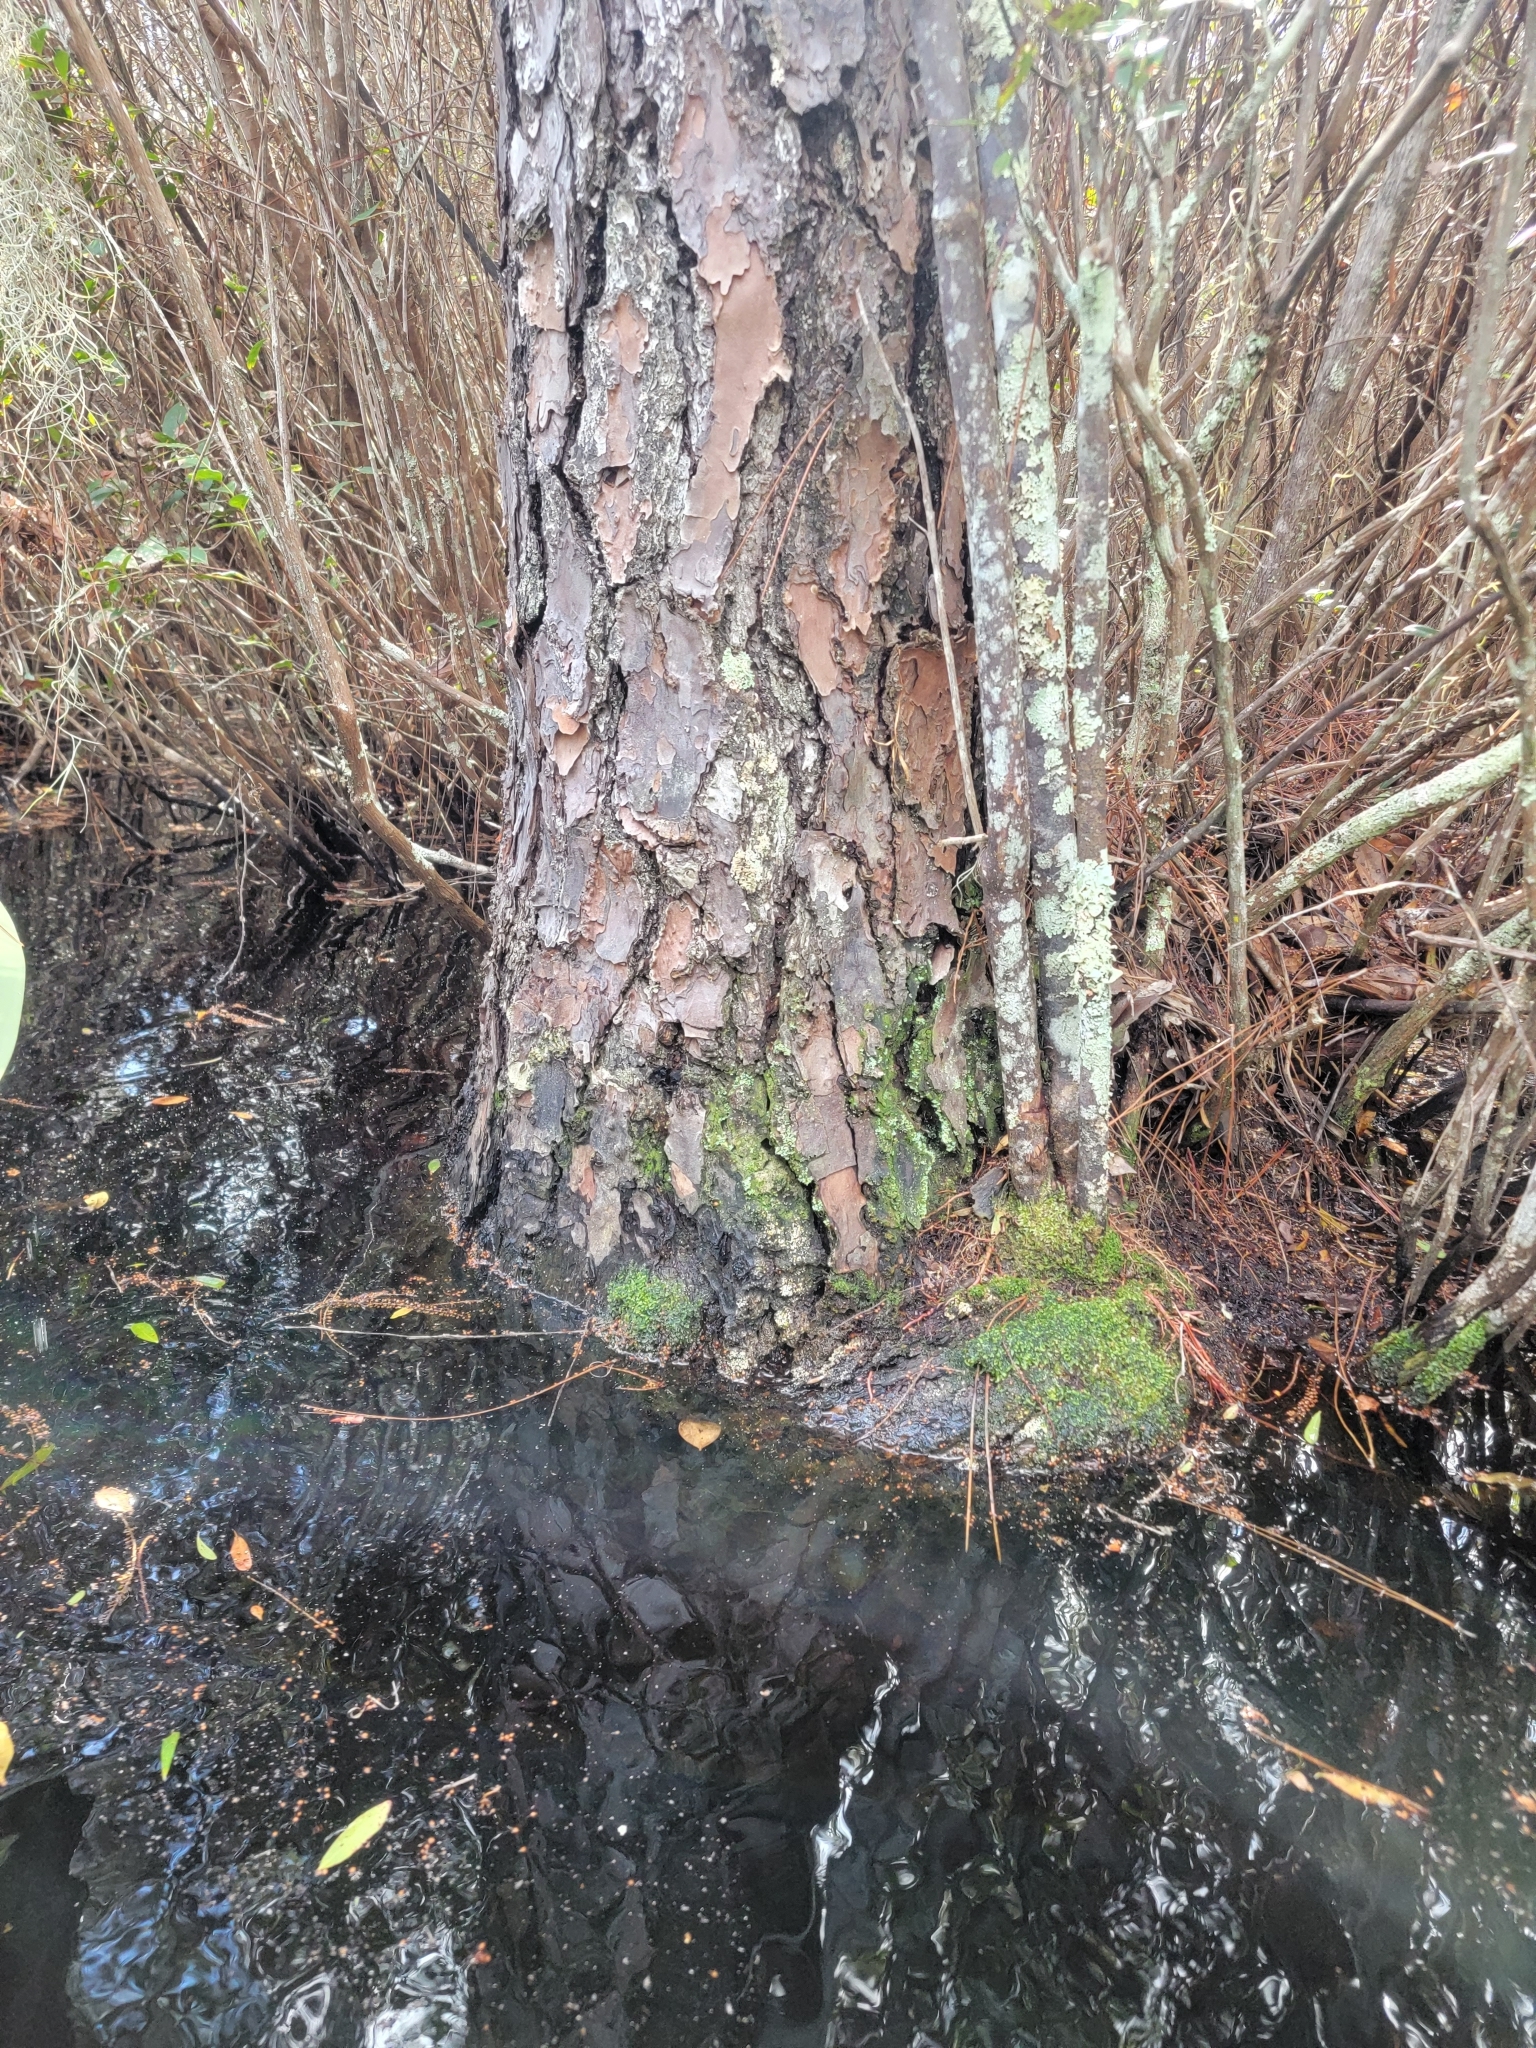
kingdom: Plantae
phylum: Tracheophyta
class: Magnoliopsida
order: Ericales
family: Cyrillaceae
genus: Cyrilla
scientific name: Cyrilla racemiflora
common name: Black titi
